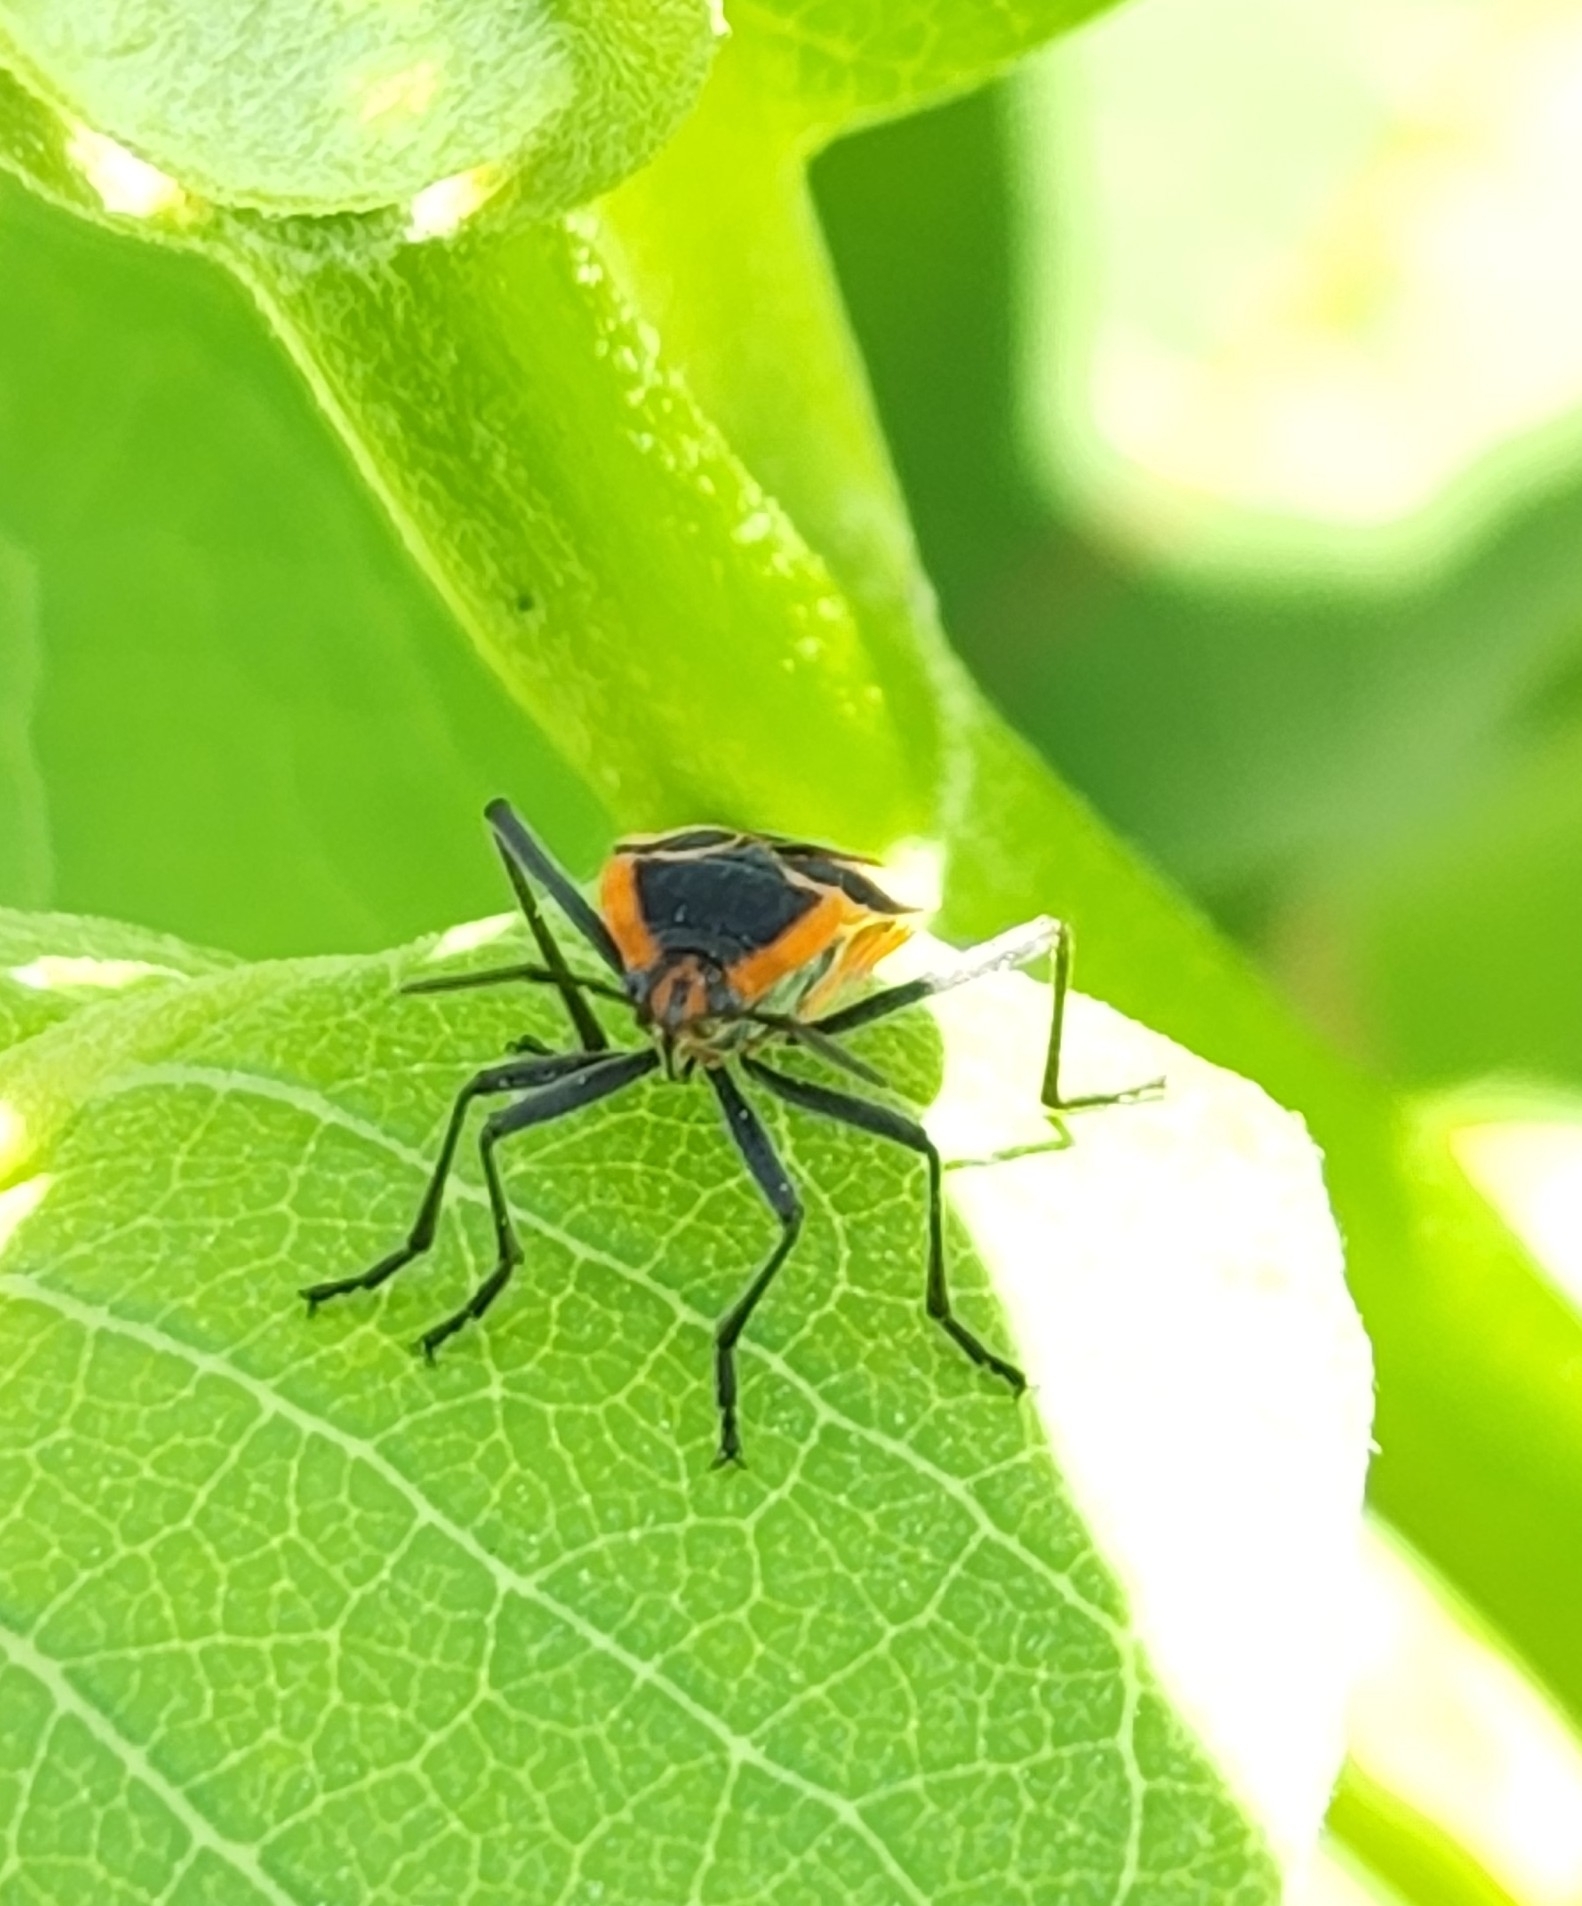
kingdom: Animalia
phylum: Arthropoda
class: Insecta
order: Hemiptera
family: Lygaeidae
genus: Oncopeltus
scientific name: Oncopeltus fasciatus
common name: Large milkweed bug
